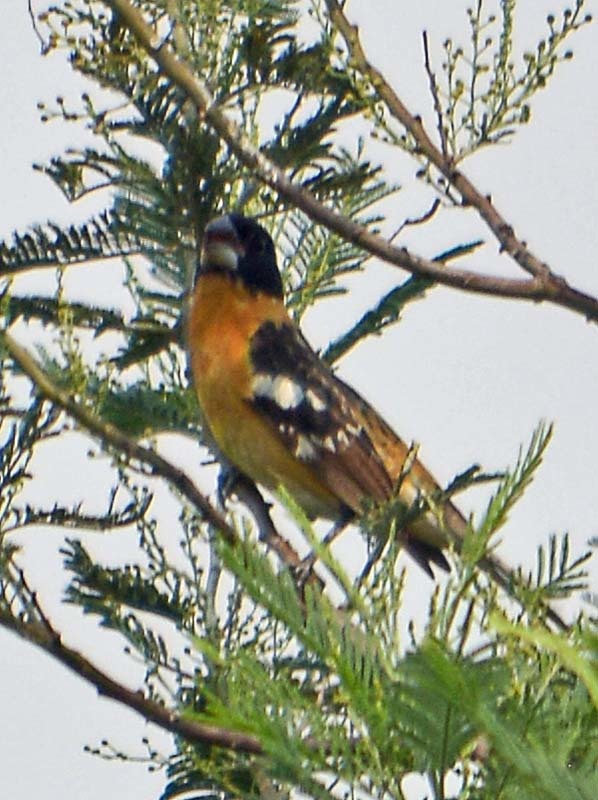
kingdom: Animalia
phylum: Chordata
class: Aves
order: Passeriformes
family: Cardinalidae
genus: Pheucticus
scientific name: Pheucticus melanocephalus
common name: Black-headed grosbeak
